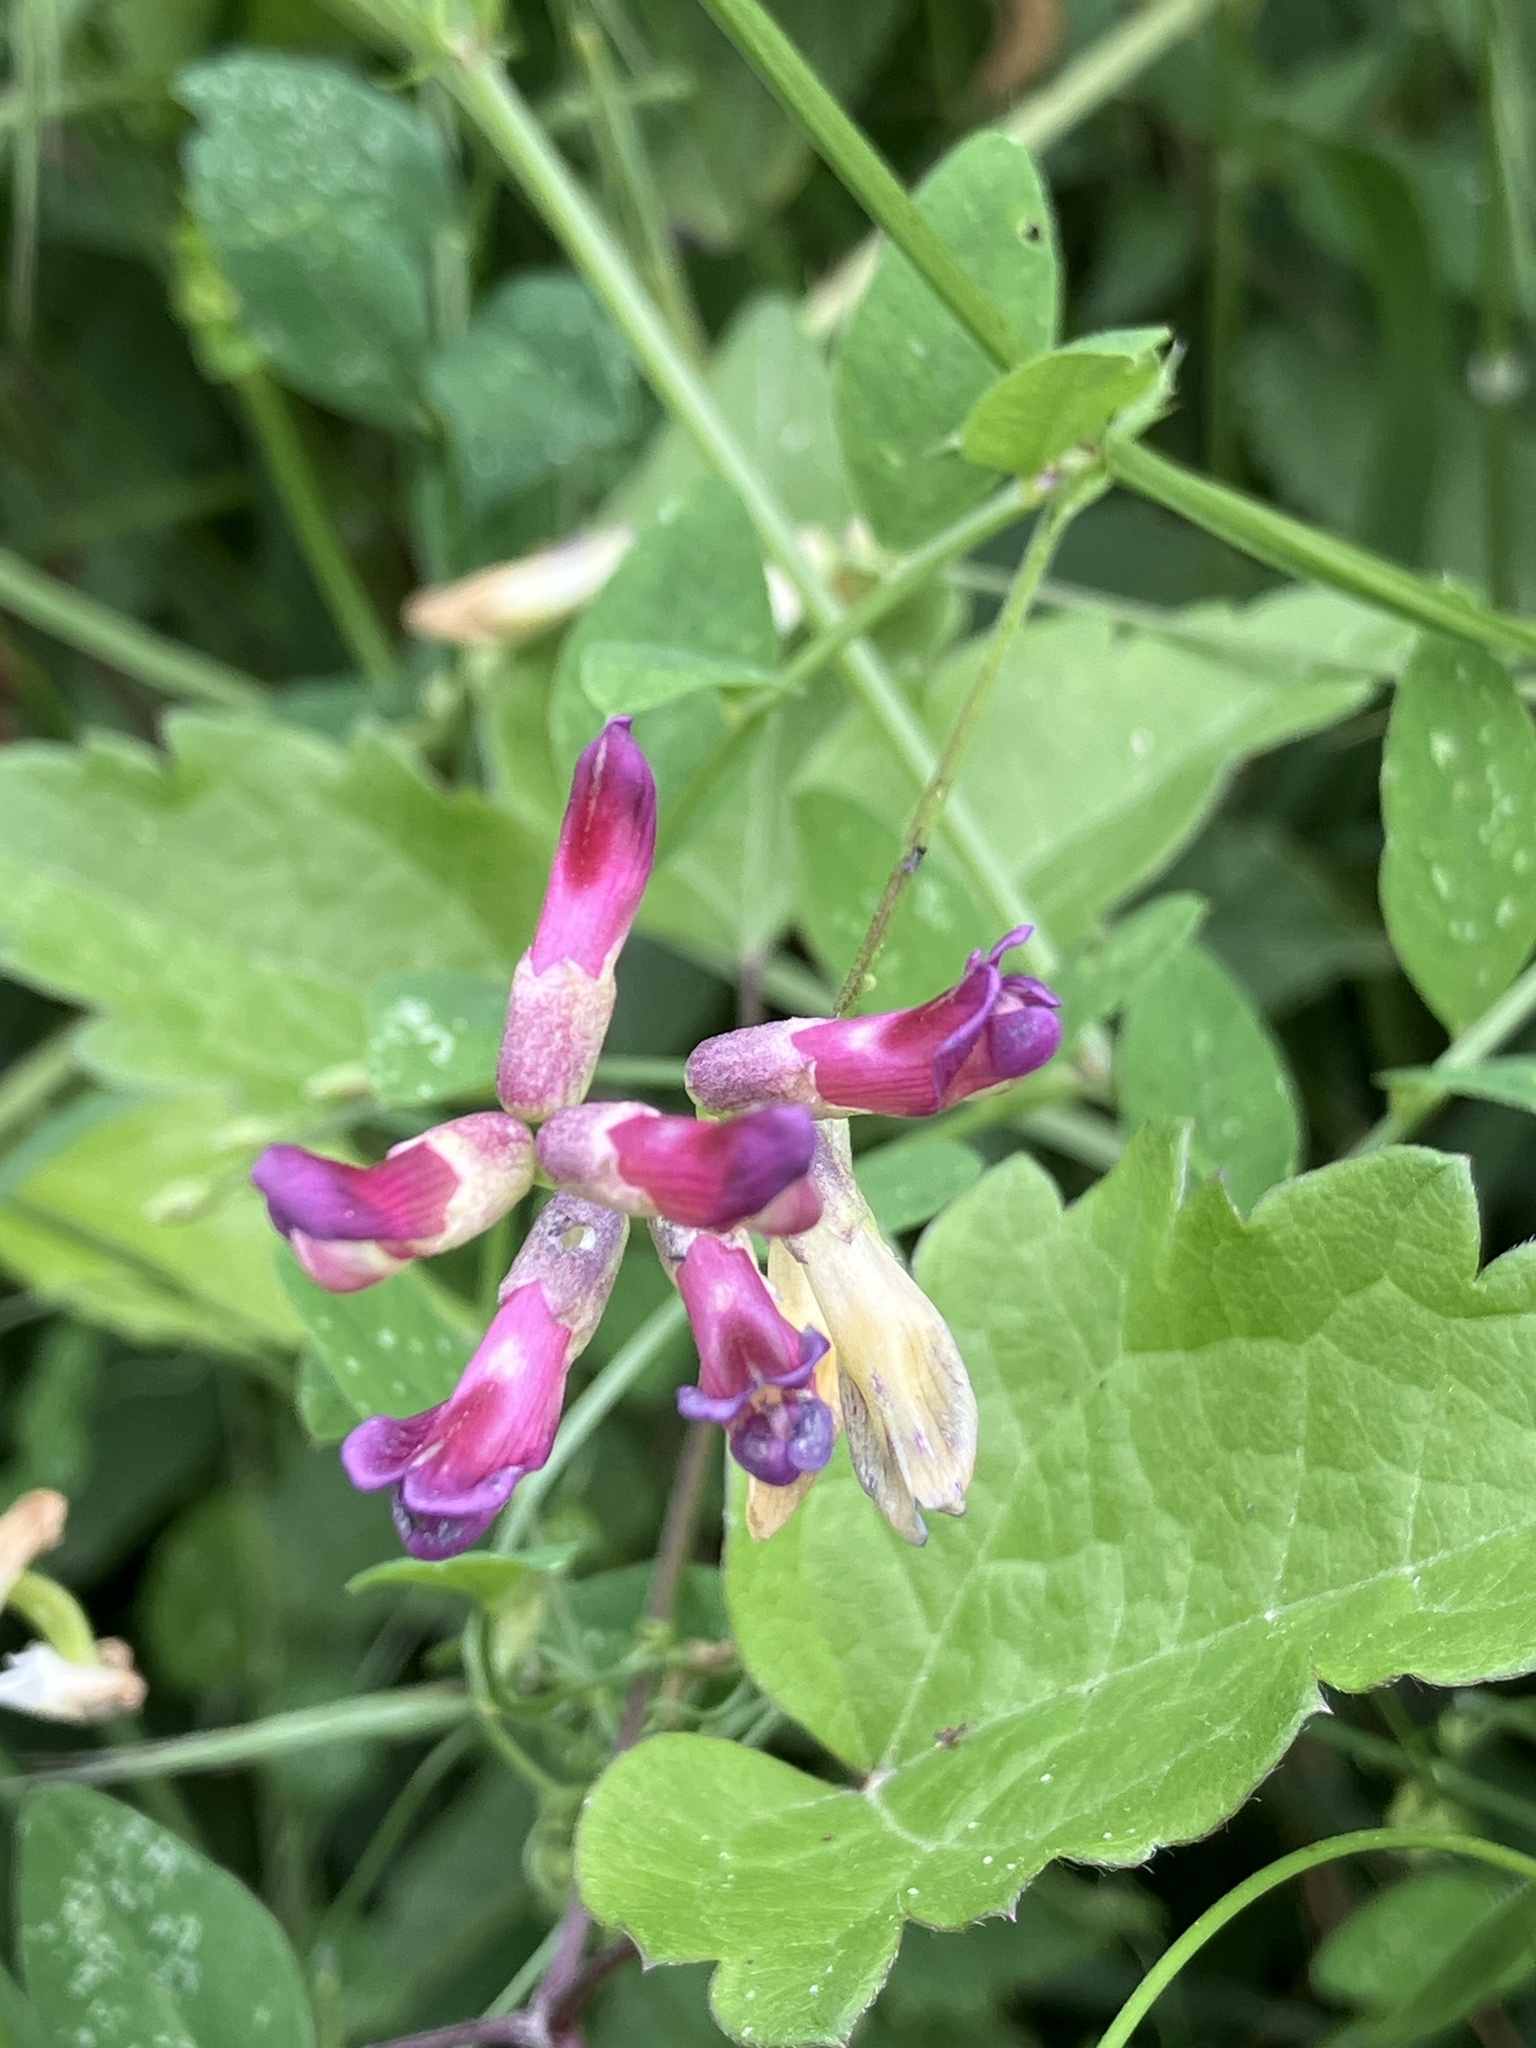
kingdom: Plantae
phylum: Tracheophyta
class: Magnoliopsida
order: Fabales
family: Fabaceae
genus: Vicia
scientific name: Vicia dumetorum
